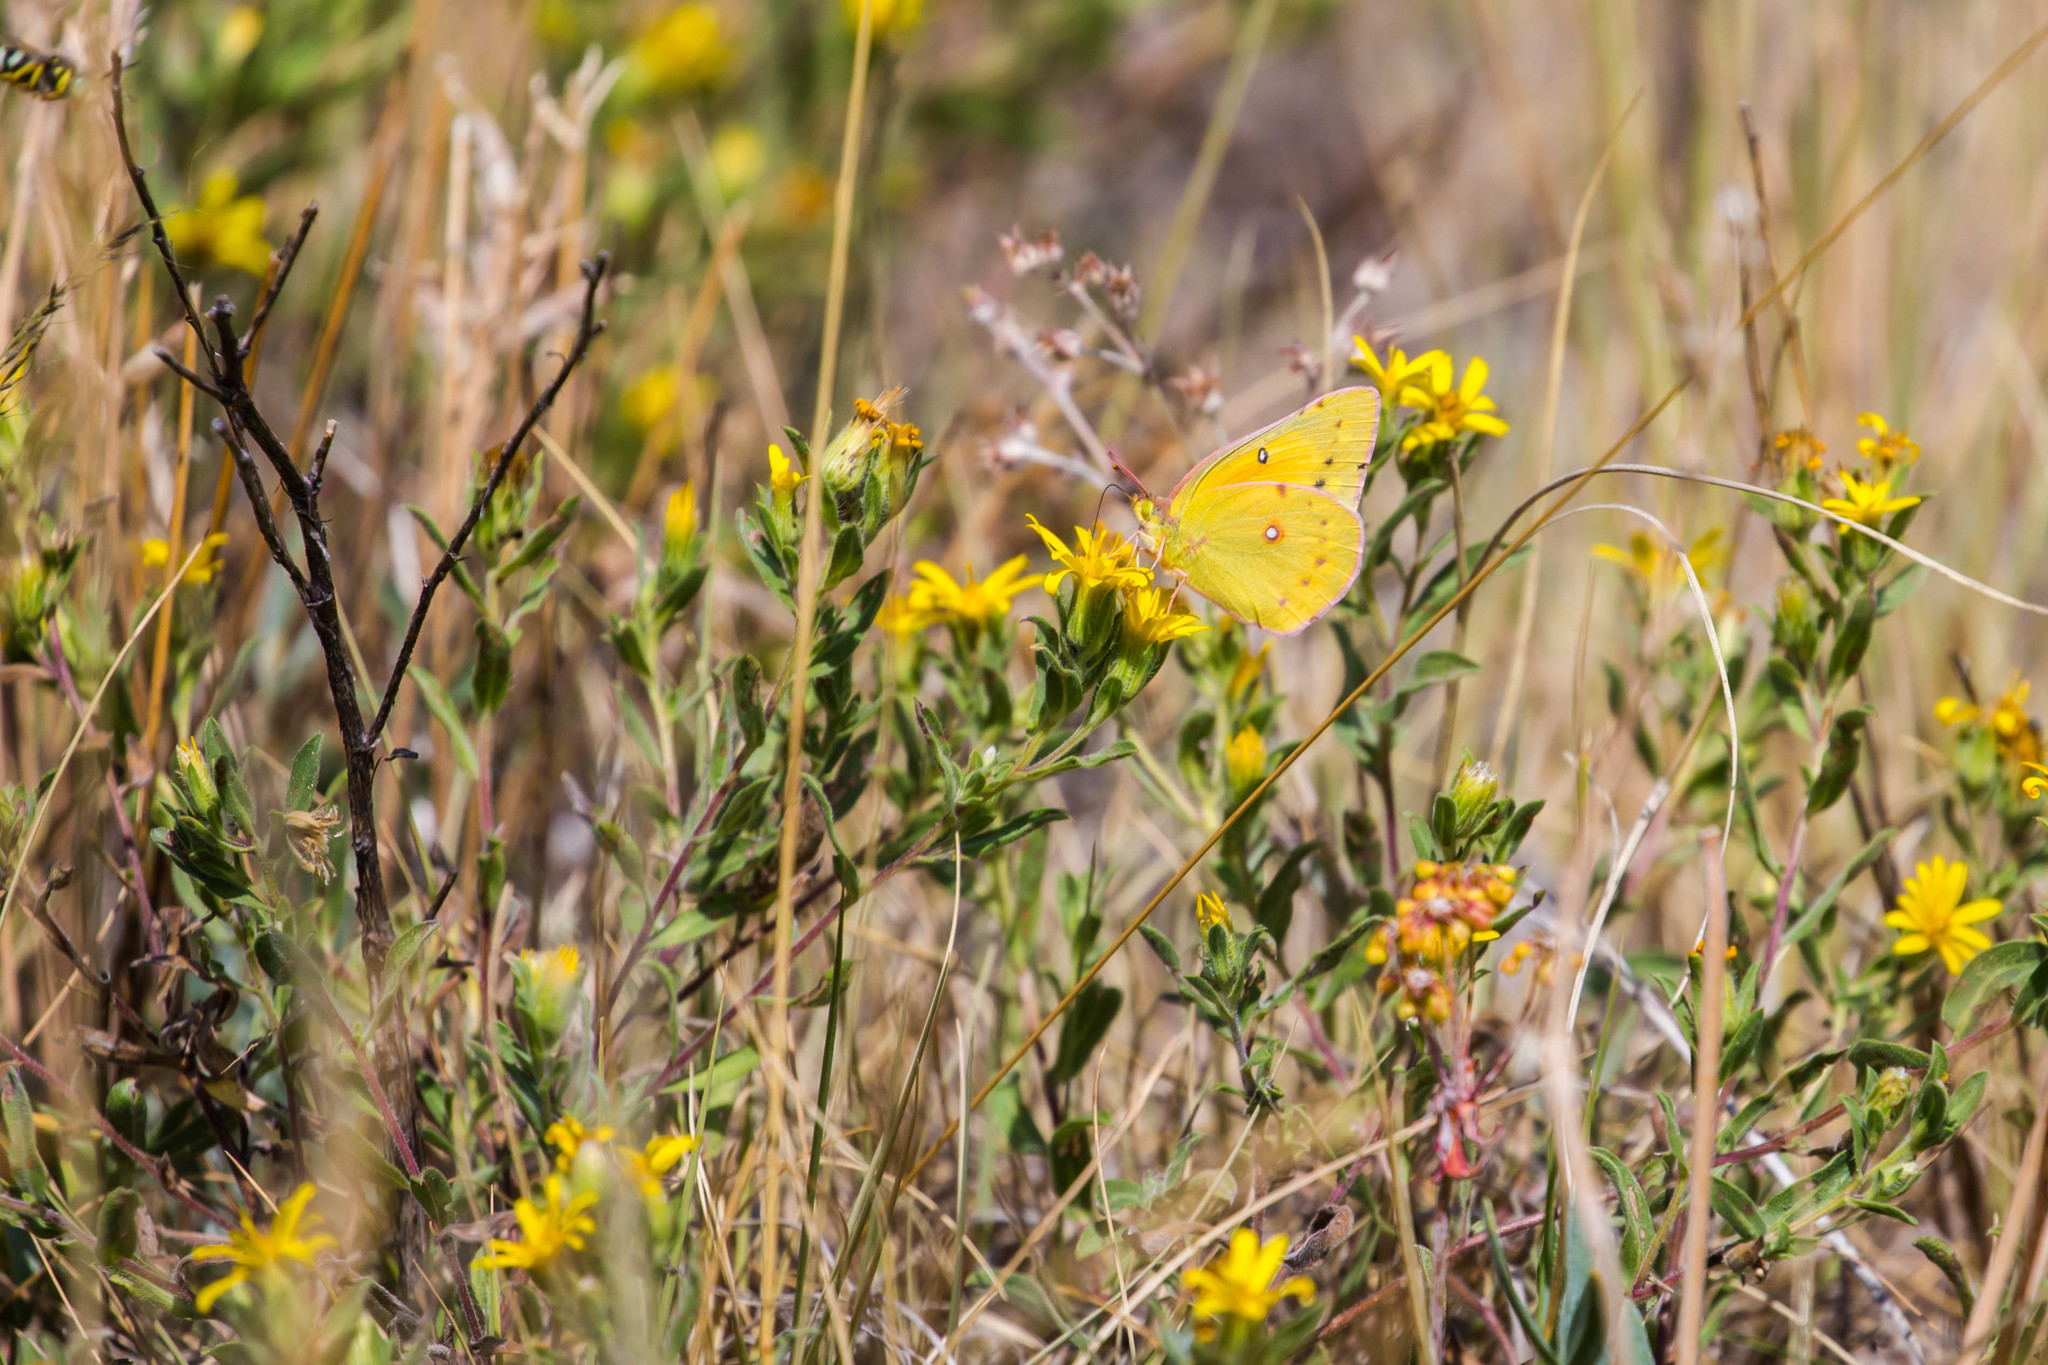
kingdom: Animalia
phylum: Arthropoda
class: Insecta
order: Lepidoptera
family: Pieridae
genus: Colias
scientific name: Colias eurytheme
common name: Alfalfa butterfly
